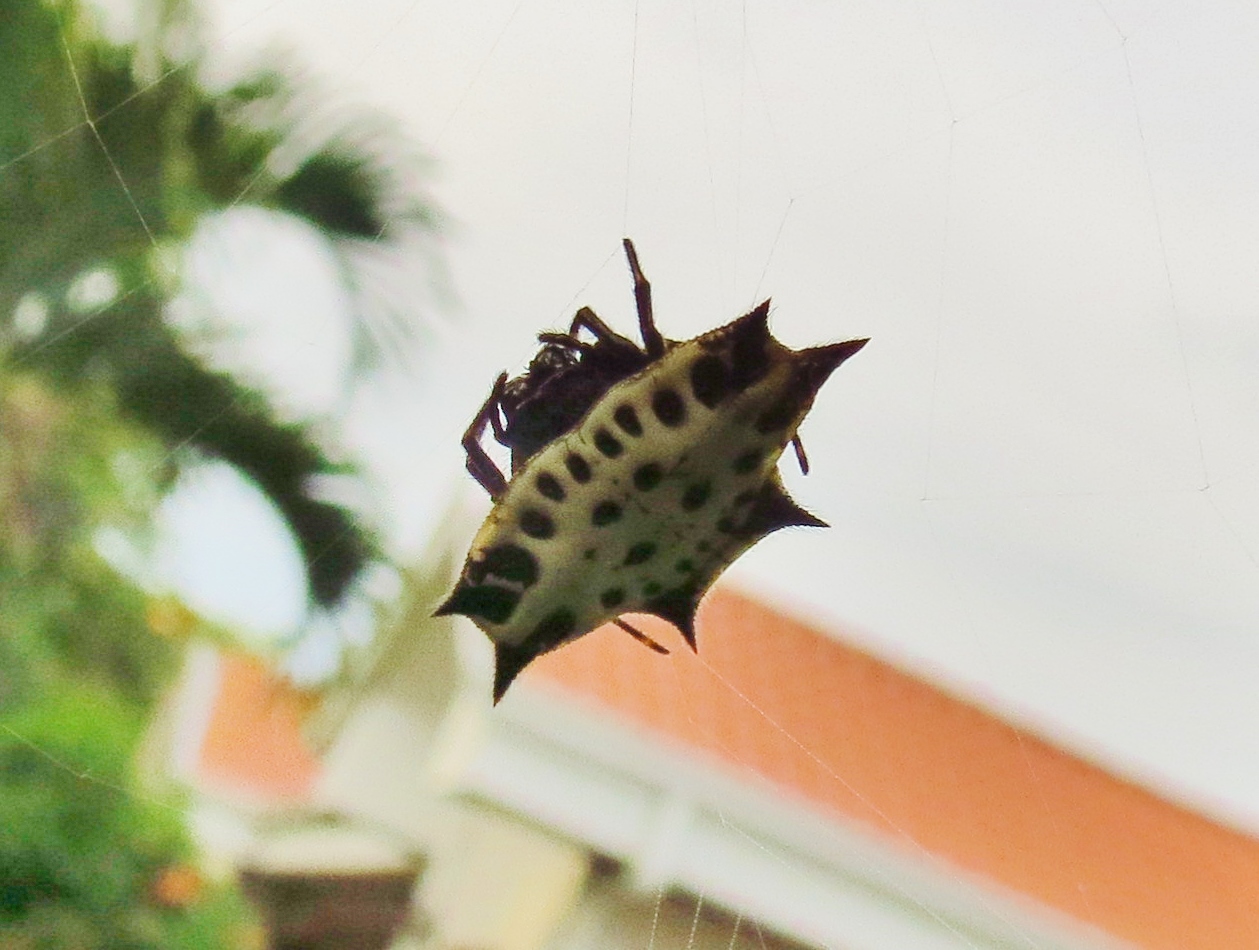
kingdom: Animalia
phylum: Arthropoda
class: Arachnida
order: Araneae
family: Araneidae
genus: Gasteracantha
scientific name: Gasteracantha cancriformis
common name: Orb weavers
